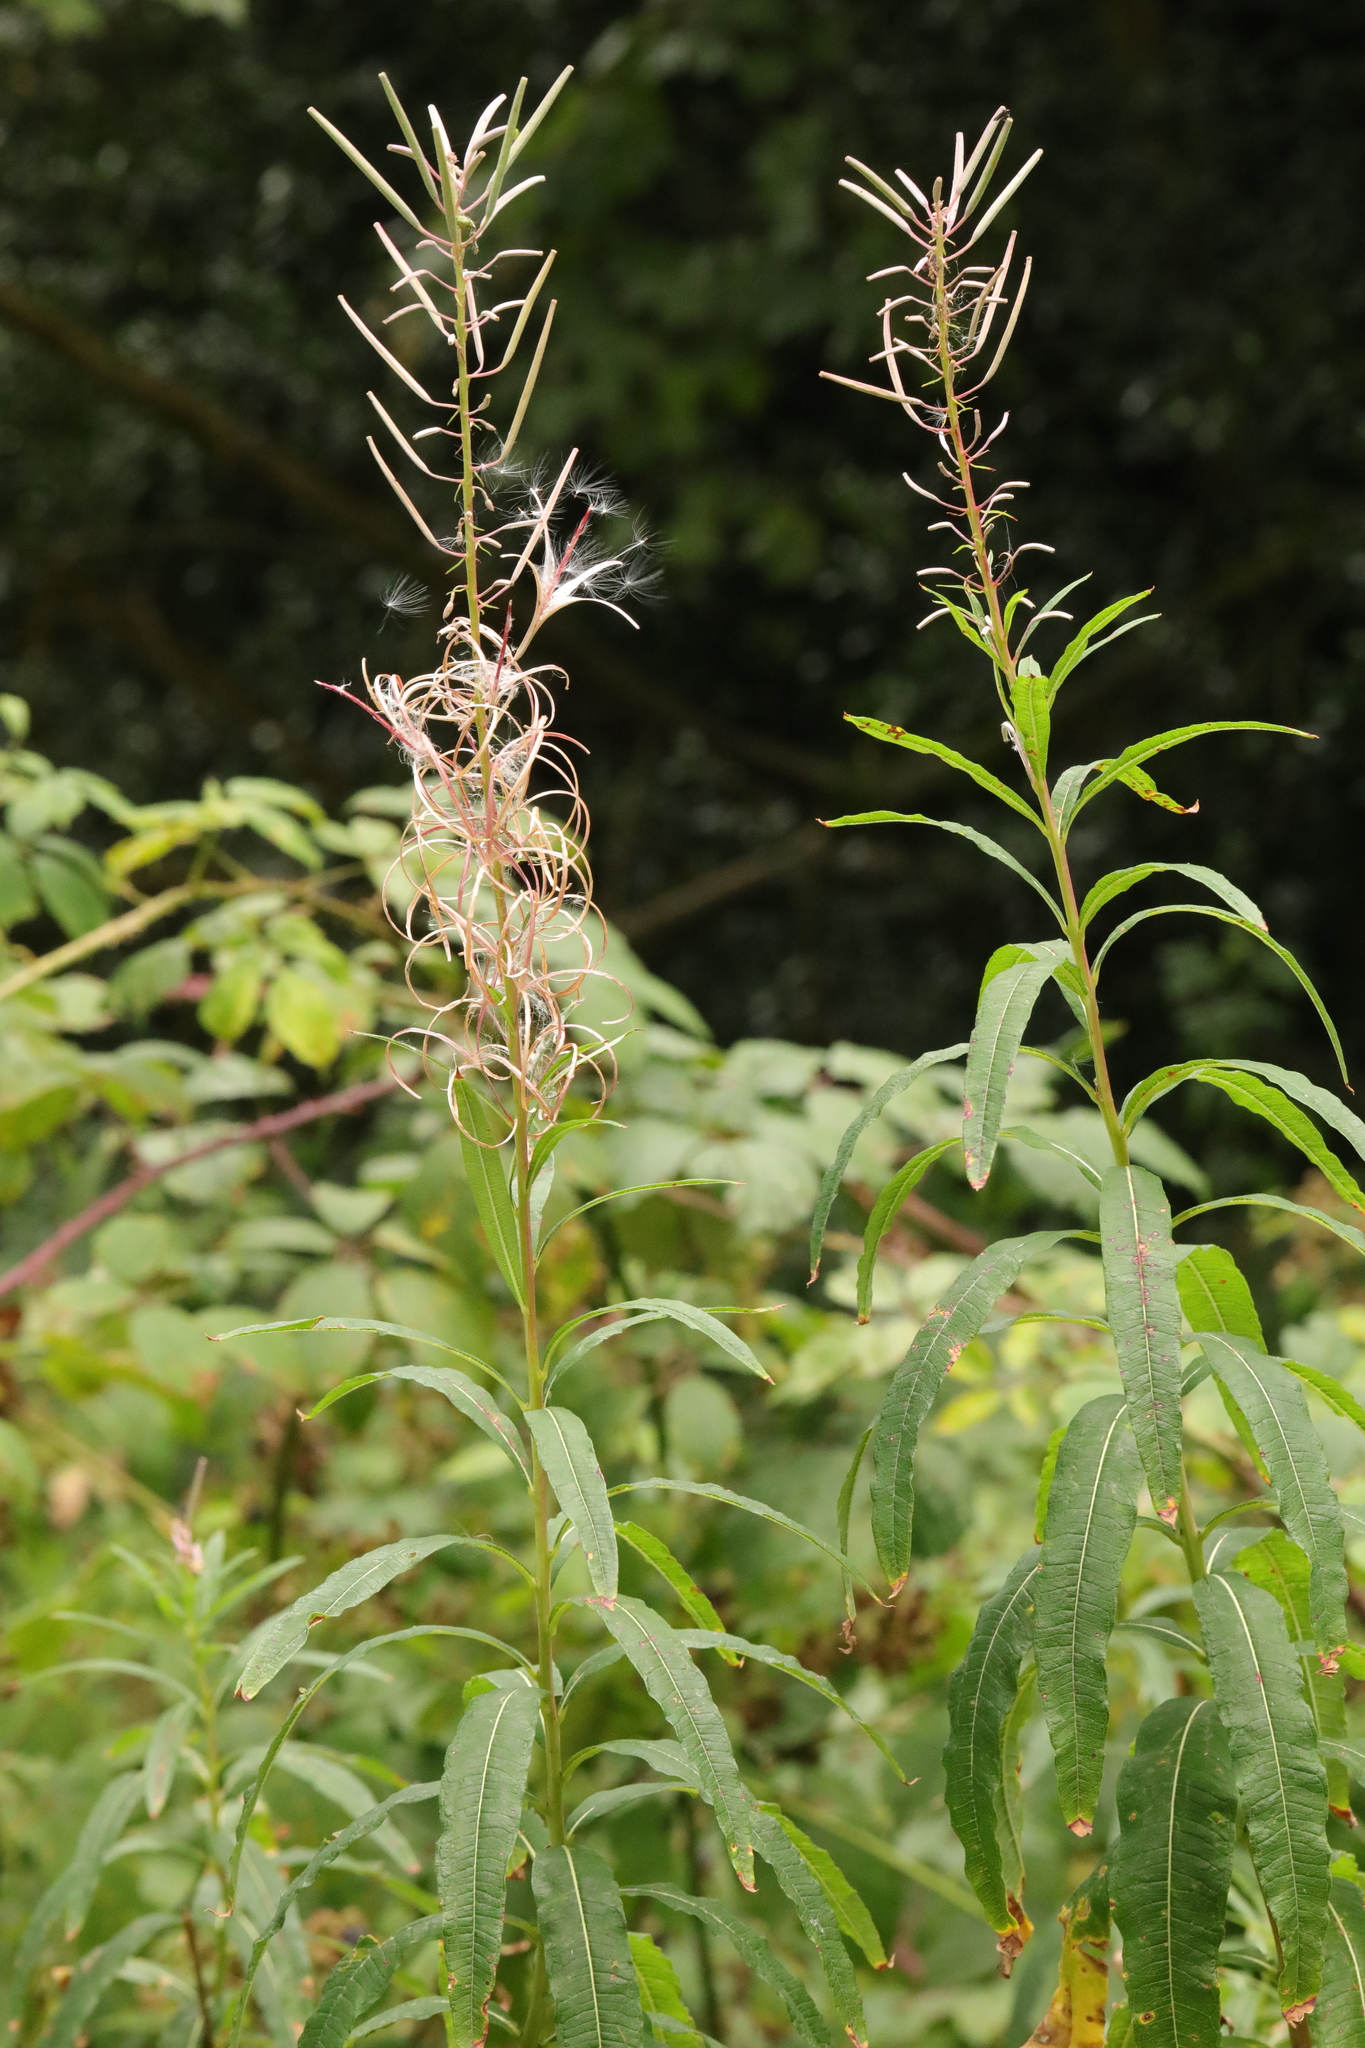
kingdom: Plantae
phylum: Tracheophyta
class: Magnoliopsida
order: Myrtales
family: Onagraceae
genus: Chamaenerion
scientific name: Chamaenerion angustifolium
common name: Fireweed
